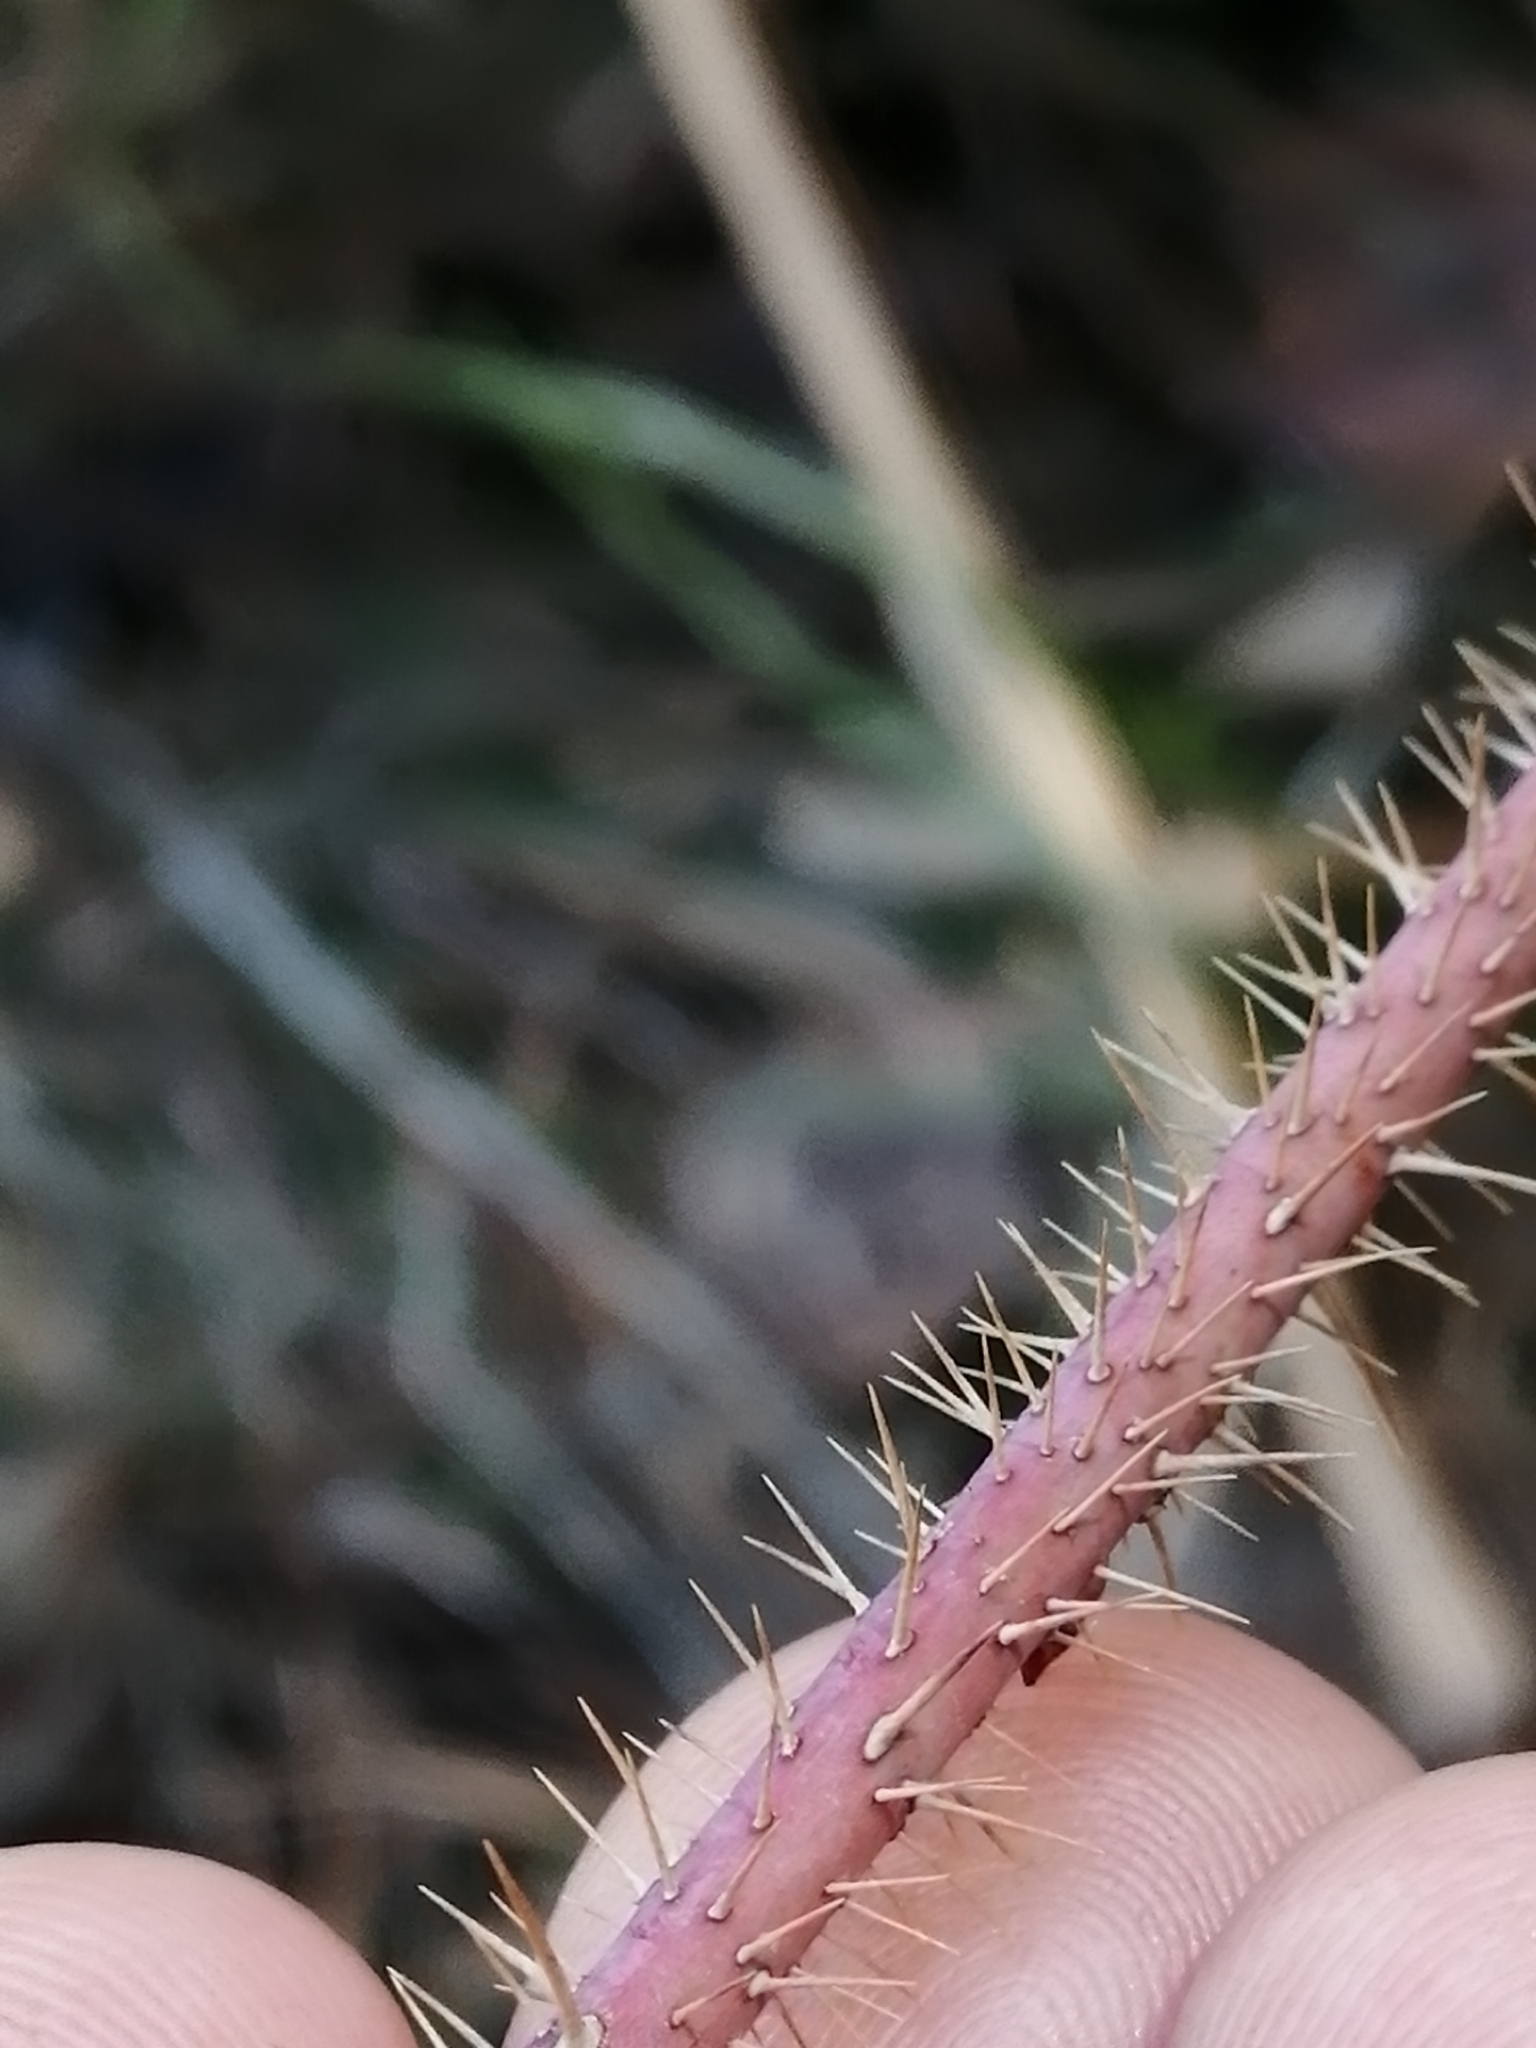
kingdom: Plantae
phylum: Tracheophyta
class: Magnoliopsida
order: Rosales
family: Rosaceae
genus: Rosa
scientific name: Rosa acicularis
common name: Prickly rose
